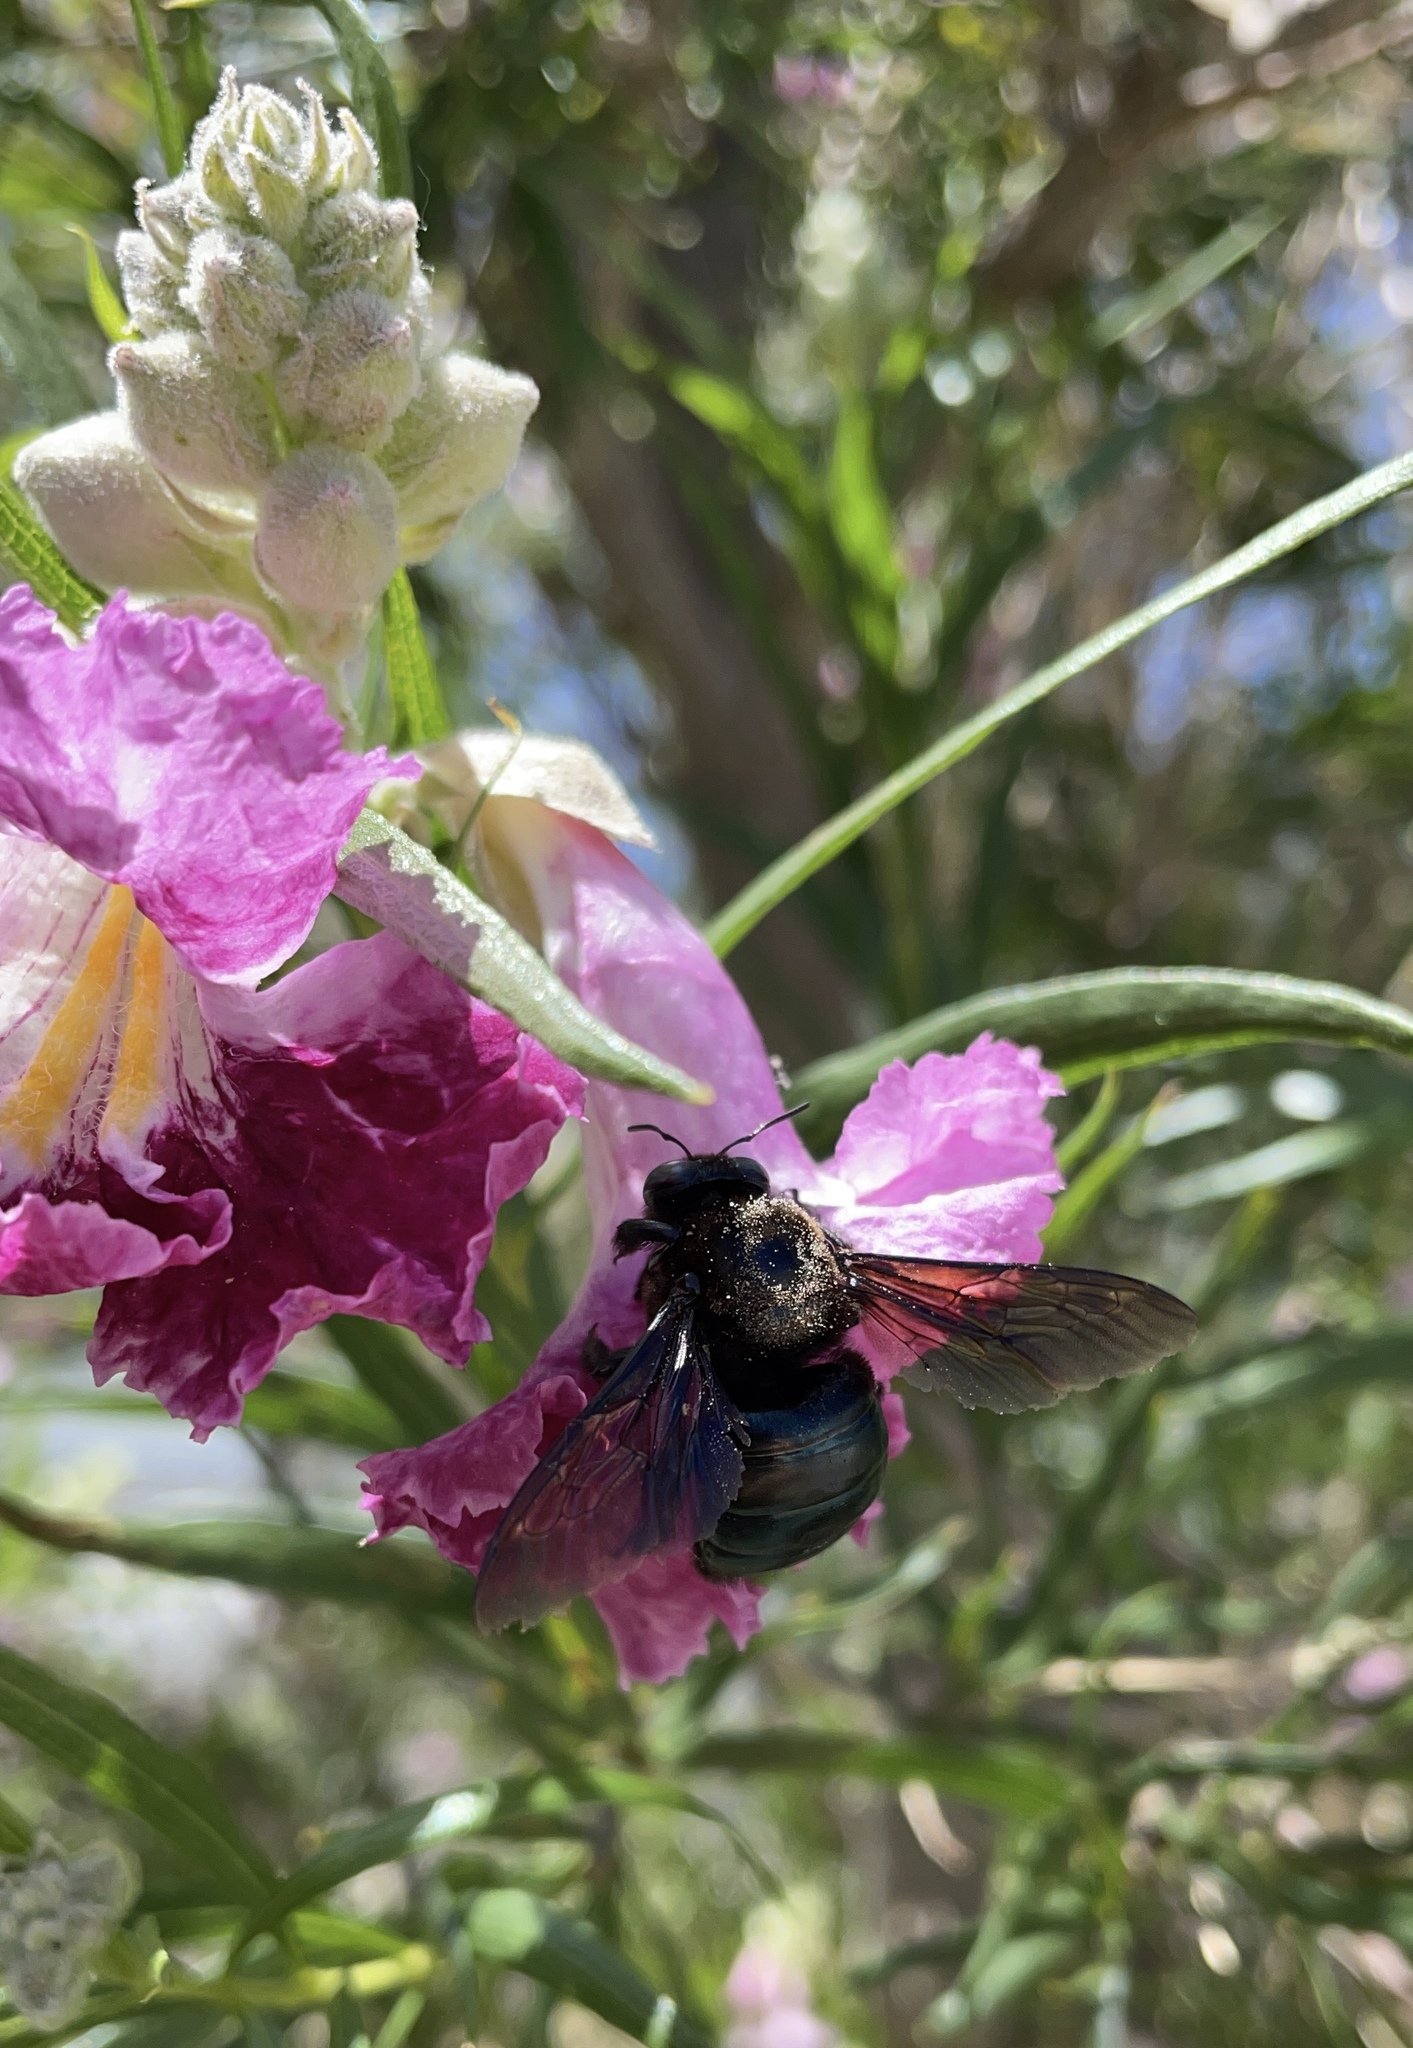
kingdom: Animalia
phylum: Arthropoda
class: Insecta
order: Hymenoptera
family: Apidae
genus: Xylocopa
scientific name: Xylocopa californica
